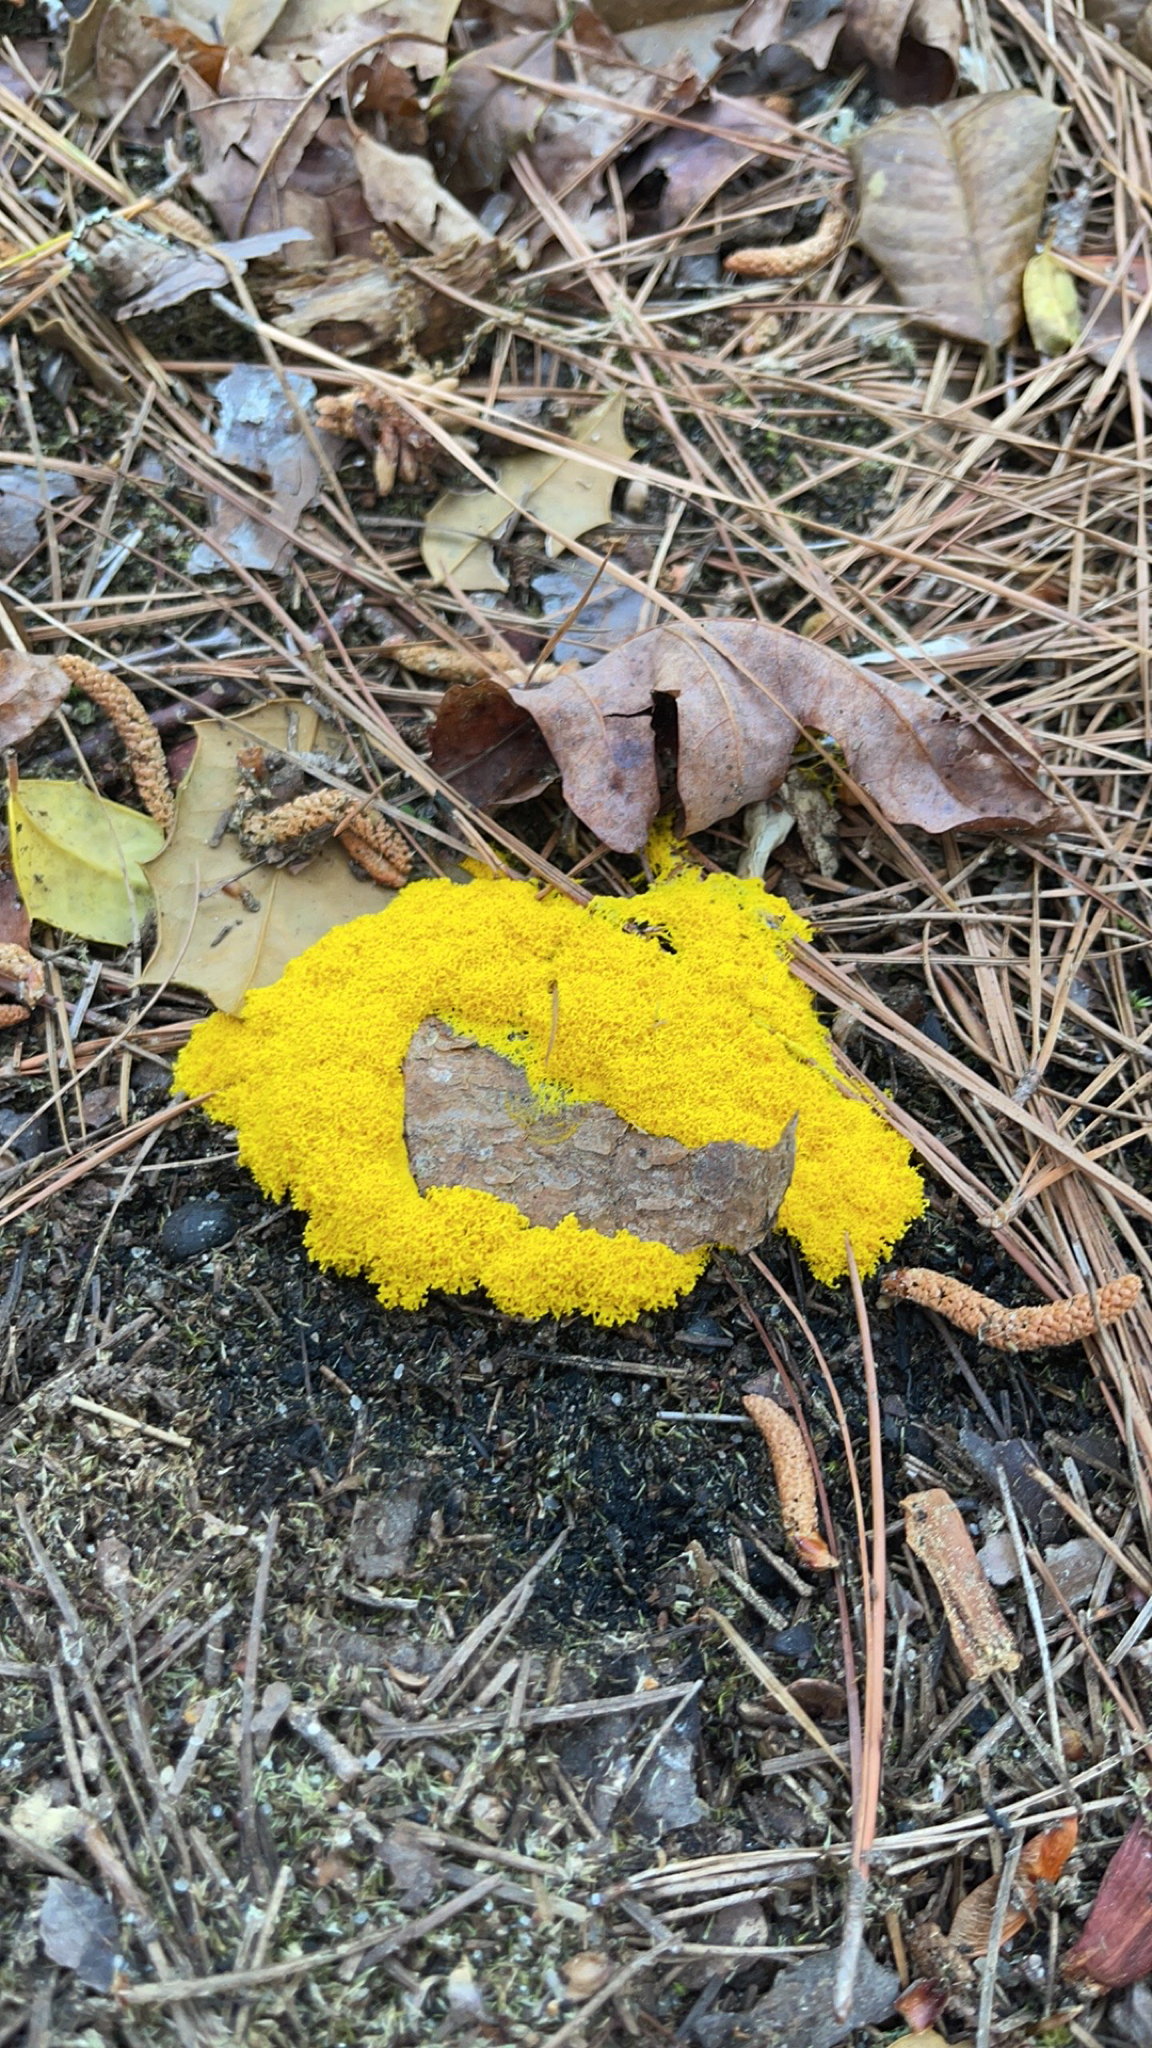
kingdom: Protozoa
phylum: Mycetozoa
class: Myxomycetes
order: Physarales
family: Physaraceae
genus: Fuligo
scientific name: Fuligo septica
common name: Dog vomit slime mold
